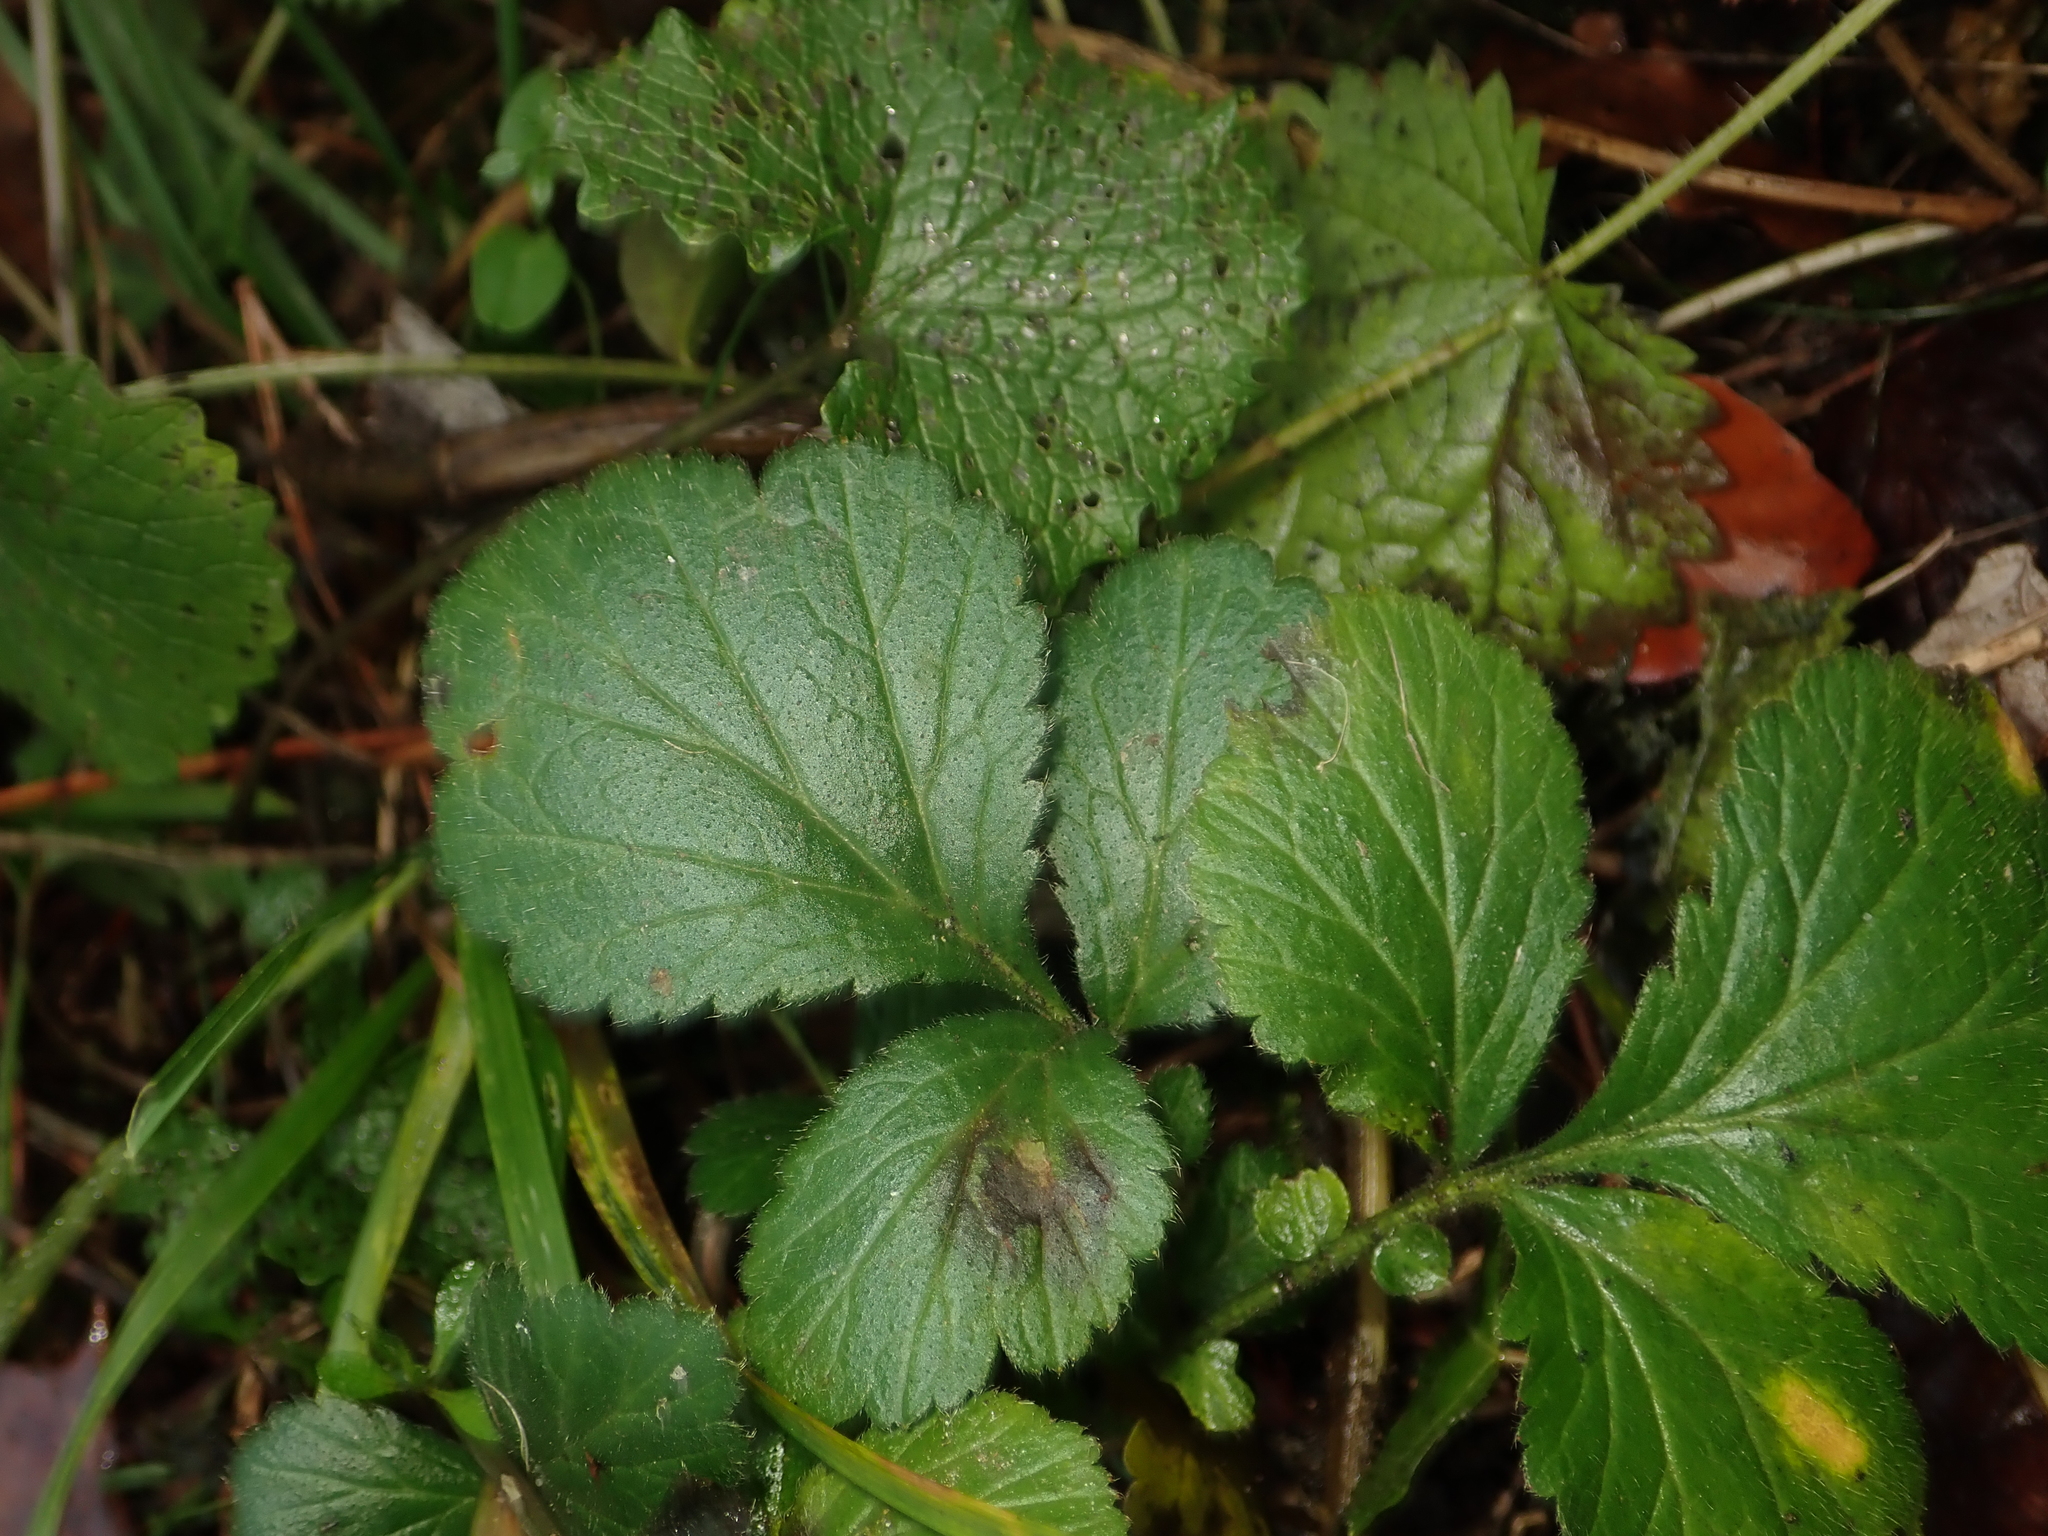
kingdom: Plantae
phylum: Tracheophyta
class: Magnoliopsida
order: Rosales
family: Rosaceae
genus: Geum
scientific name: Geum urbanum
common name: Wood avens
